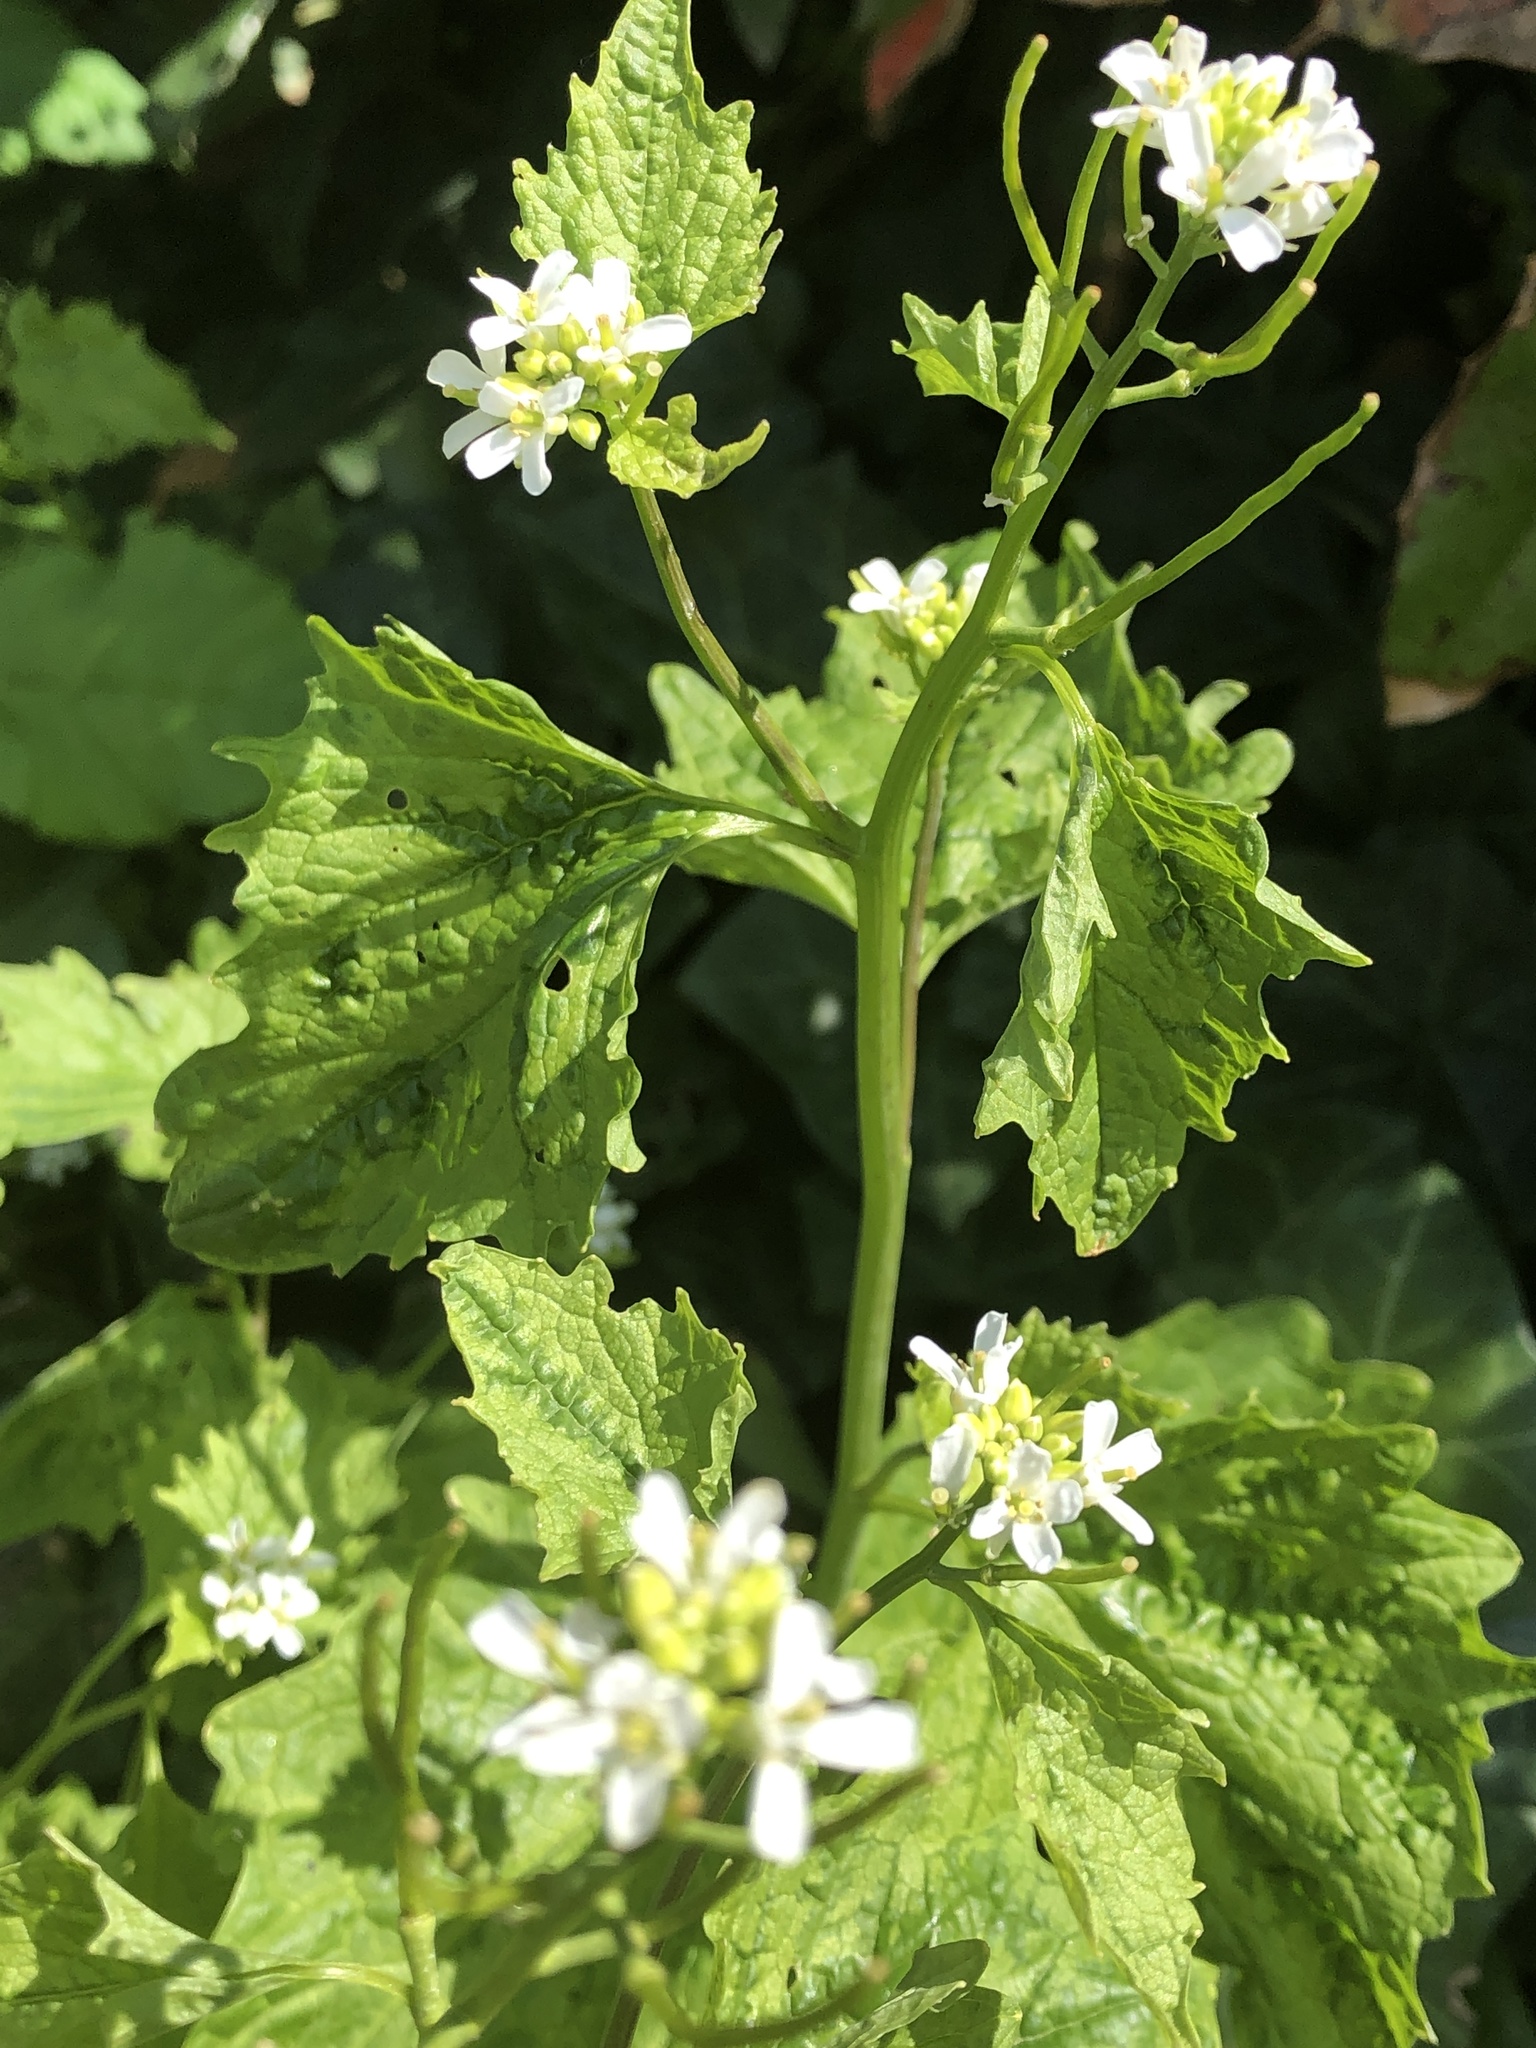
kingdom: Plantae
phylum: Tracheophyta
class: Magnoliopsida
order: Brassicales
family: Brassicaceae
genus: Alliaria
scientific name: Alliaria petiolata
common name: Garlic mustard
